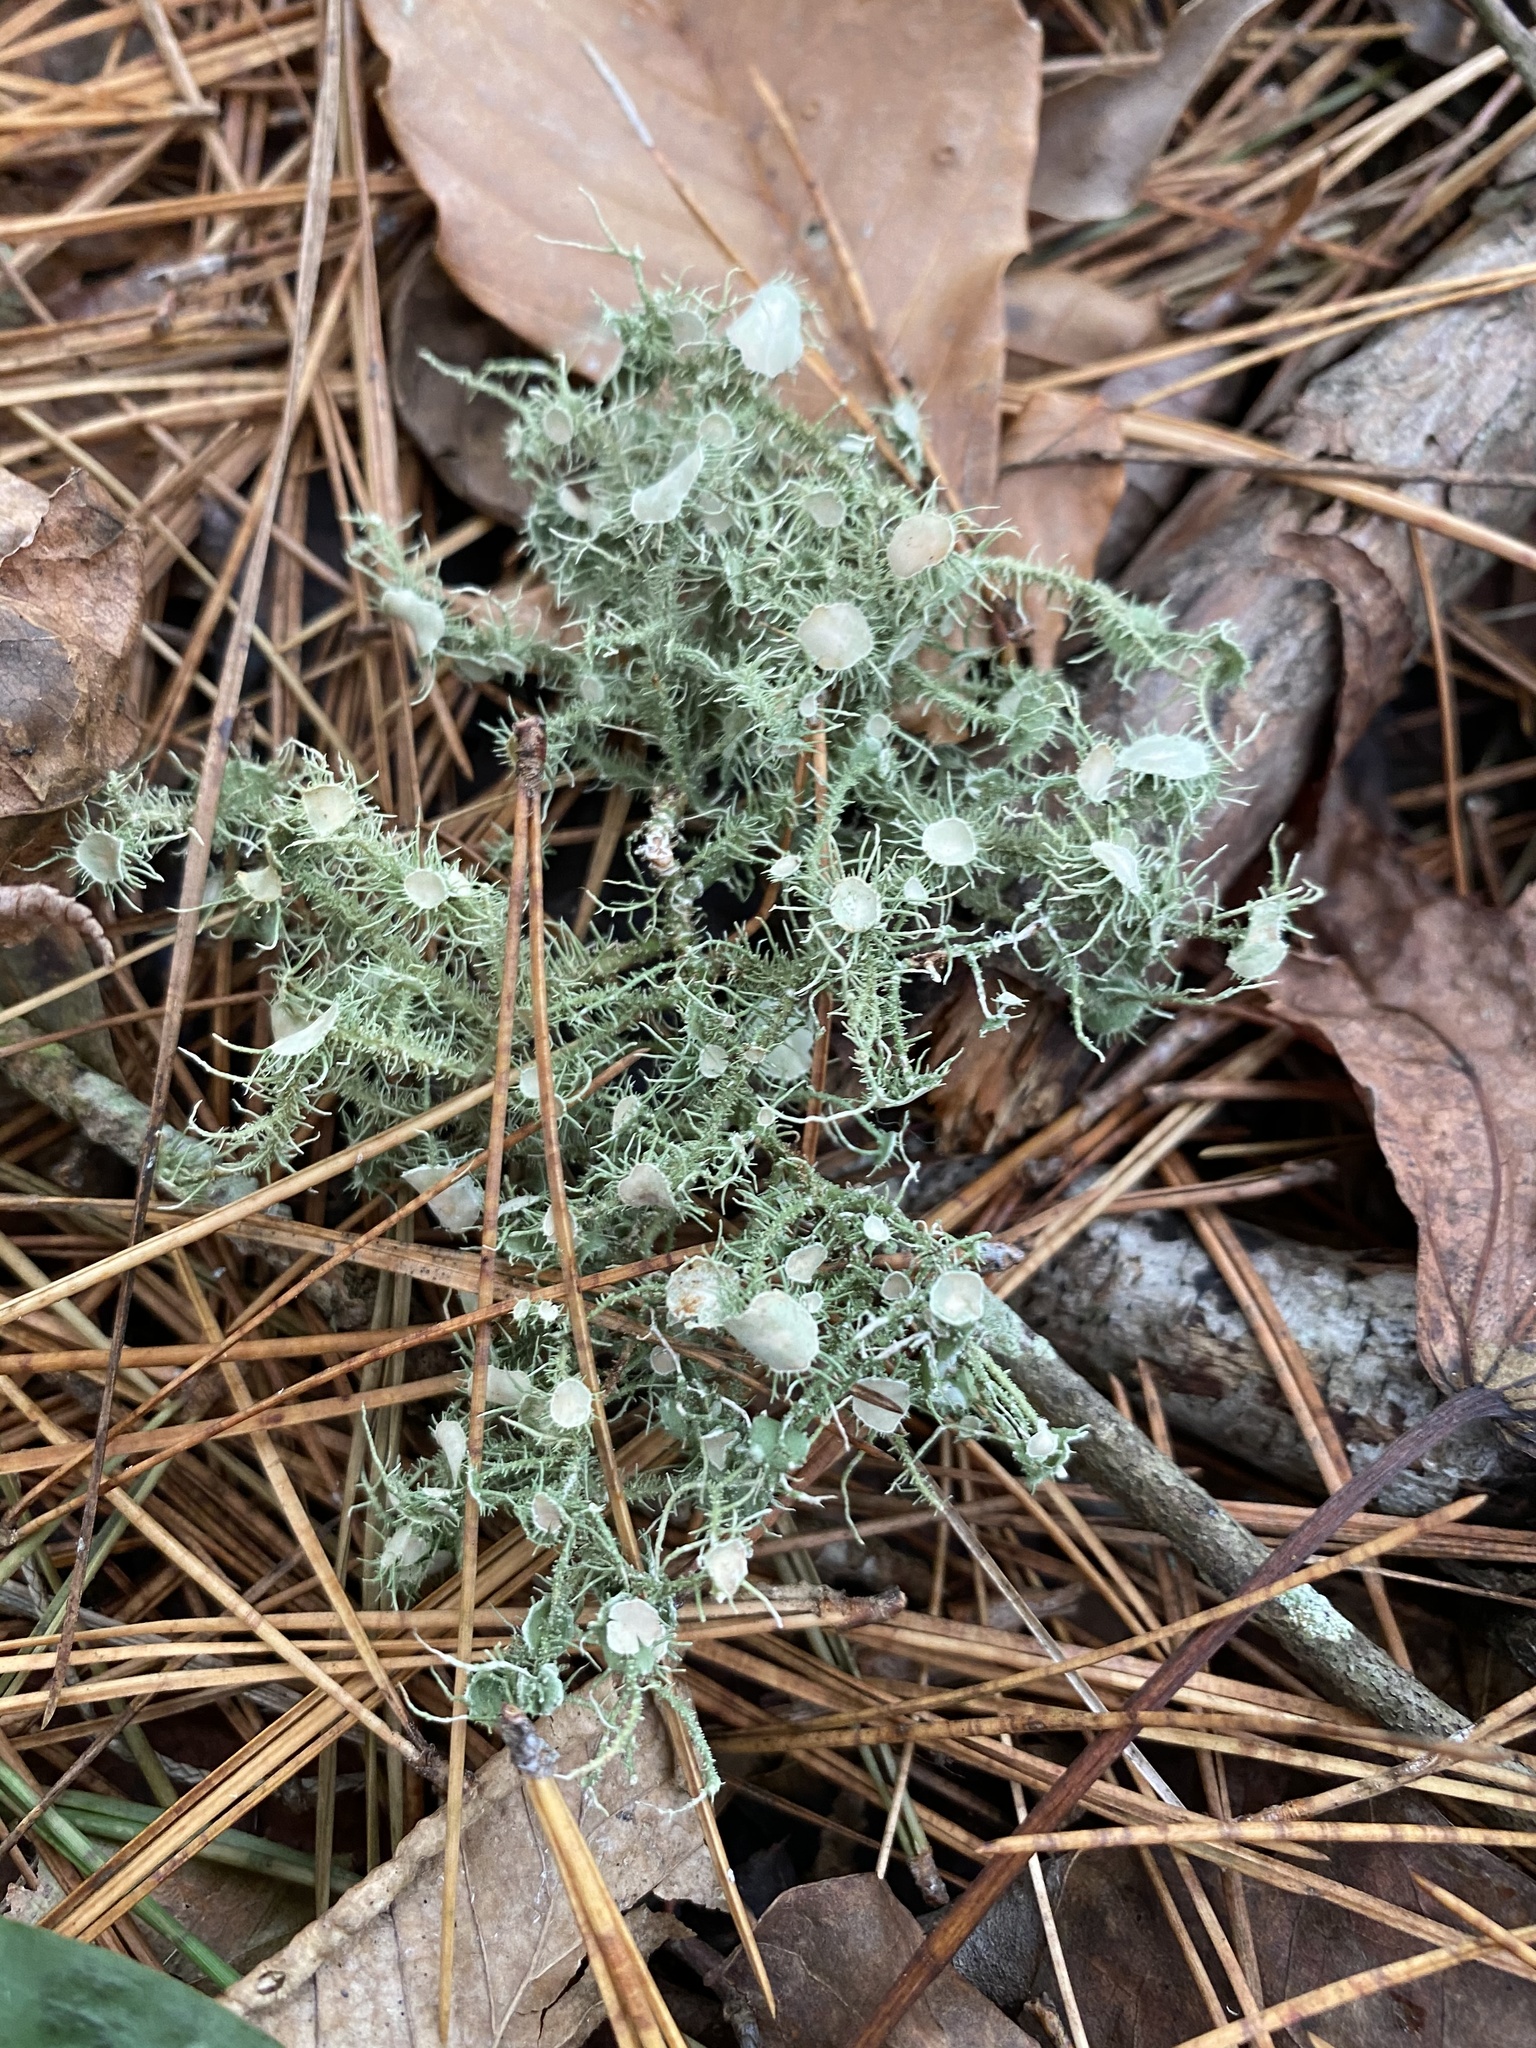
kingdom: Fungi
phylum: Ascomycota
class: Lecanoromycetes
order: Lecanorales
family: Parmeliaceae
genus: Usnea
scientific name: Usnea strigosa
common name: Bushy beard lichen
